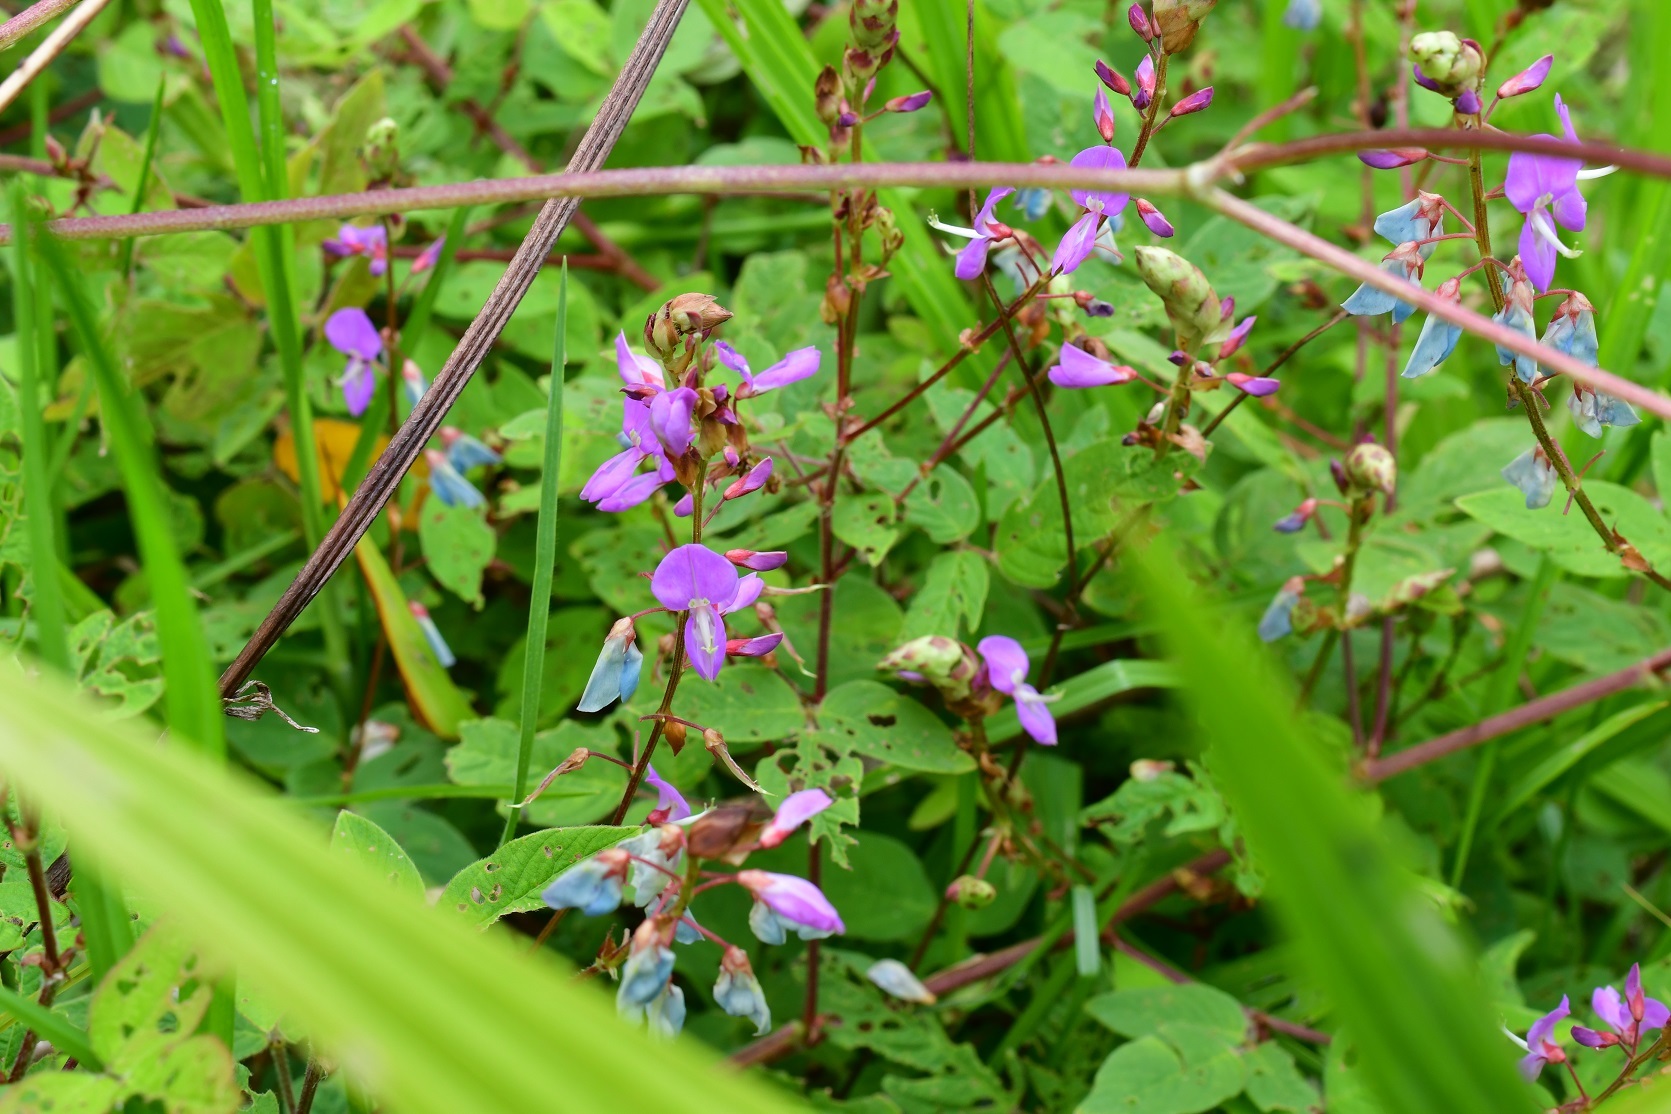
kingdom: Plantae
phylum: Tracheophyta
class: Magnoliopsida
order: Fabales
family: Fabaceae
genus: Desmodium
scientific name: Desmodium pringlei
